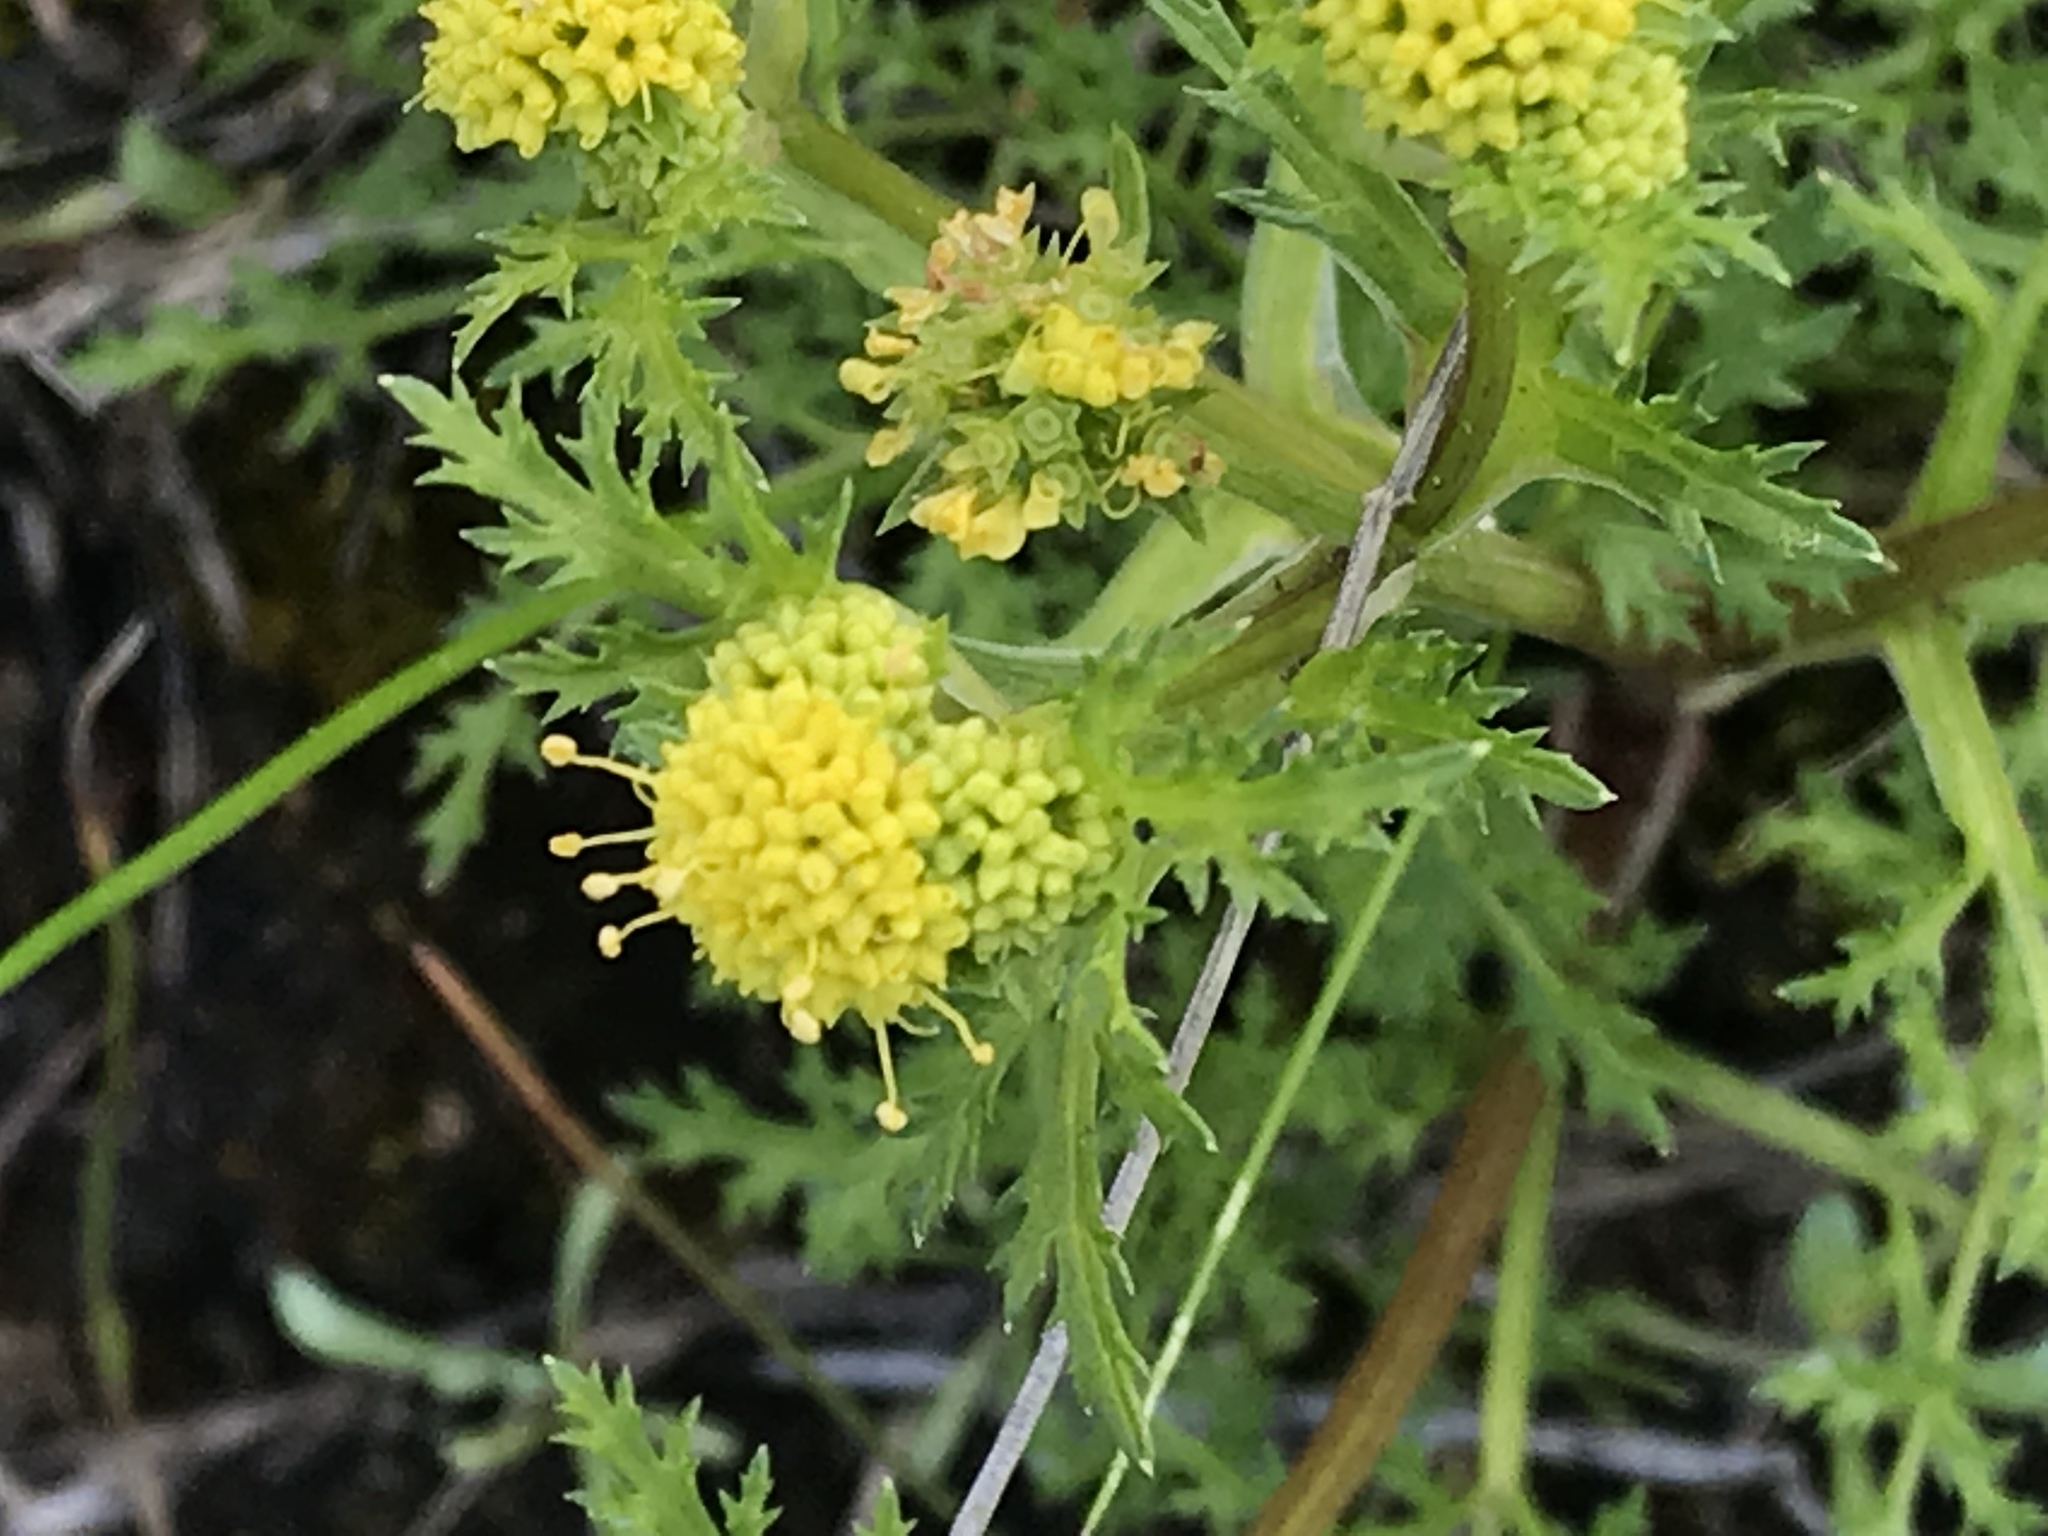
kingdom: Plantae
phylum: Tracheophyta
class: Magnoliopsida
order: Apiales
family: Apiaceae
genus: Sanicula
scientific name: Sanicula tuberosa
